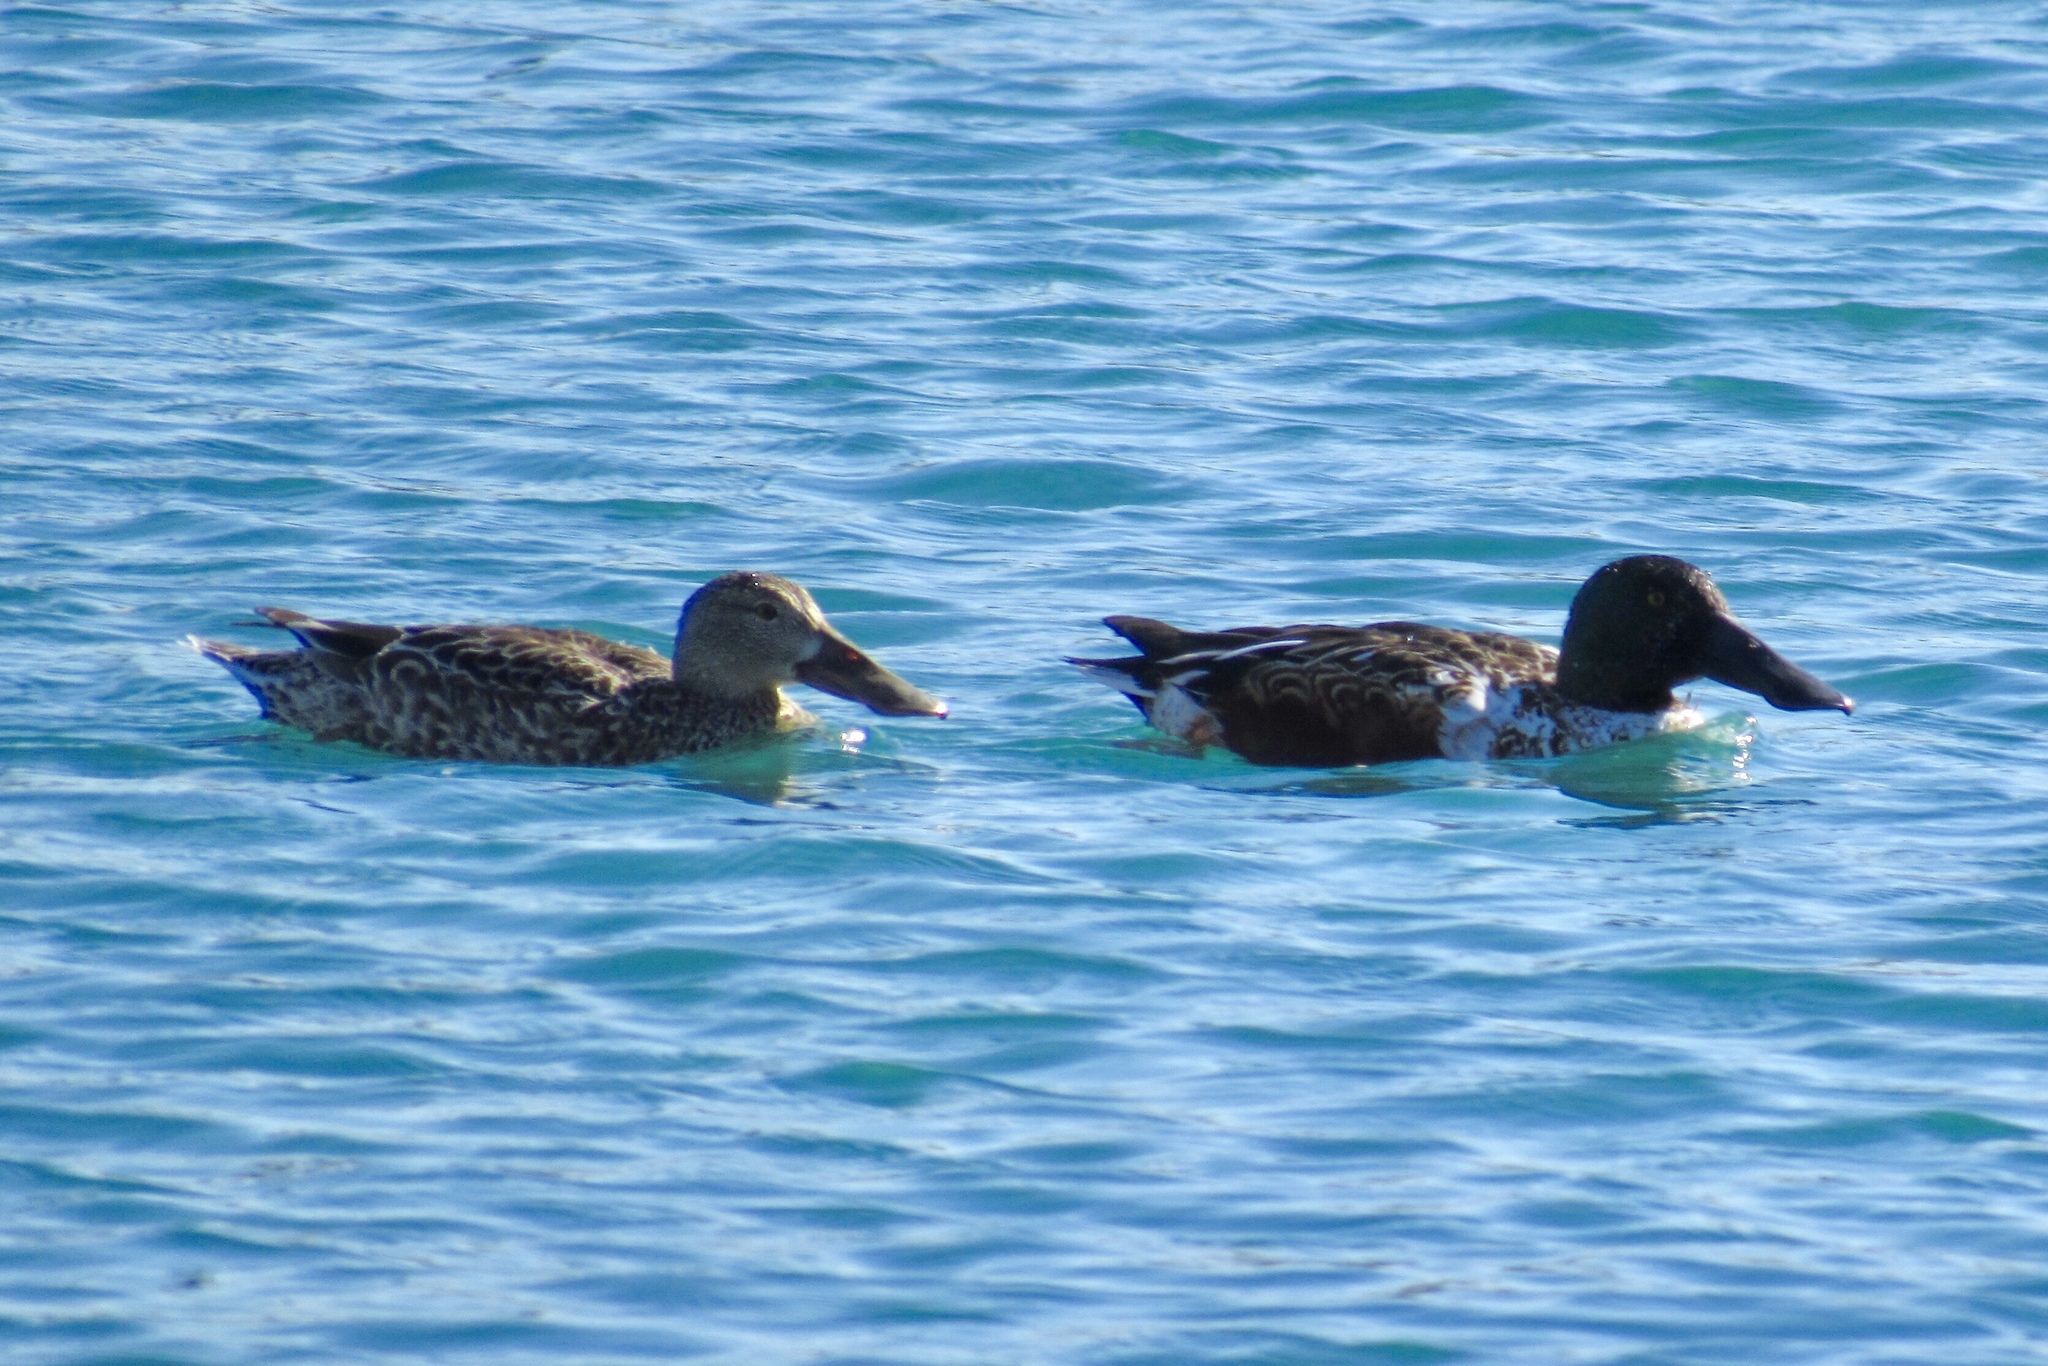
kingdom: Animalia
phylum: Chordata
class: Aves
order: Anseriformes
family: Anatidae
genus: Spatula
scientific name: Spatula clypeata
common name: Northern shoveler
